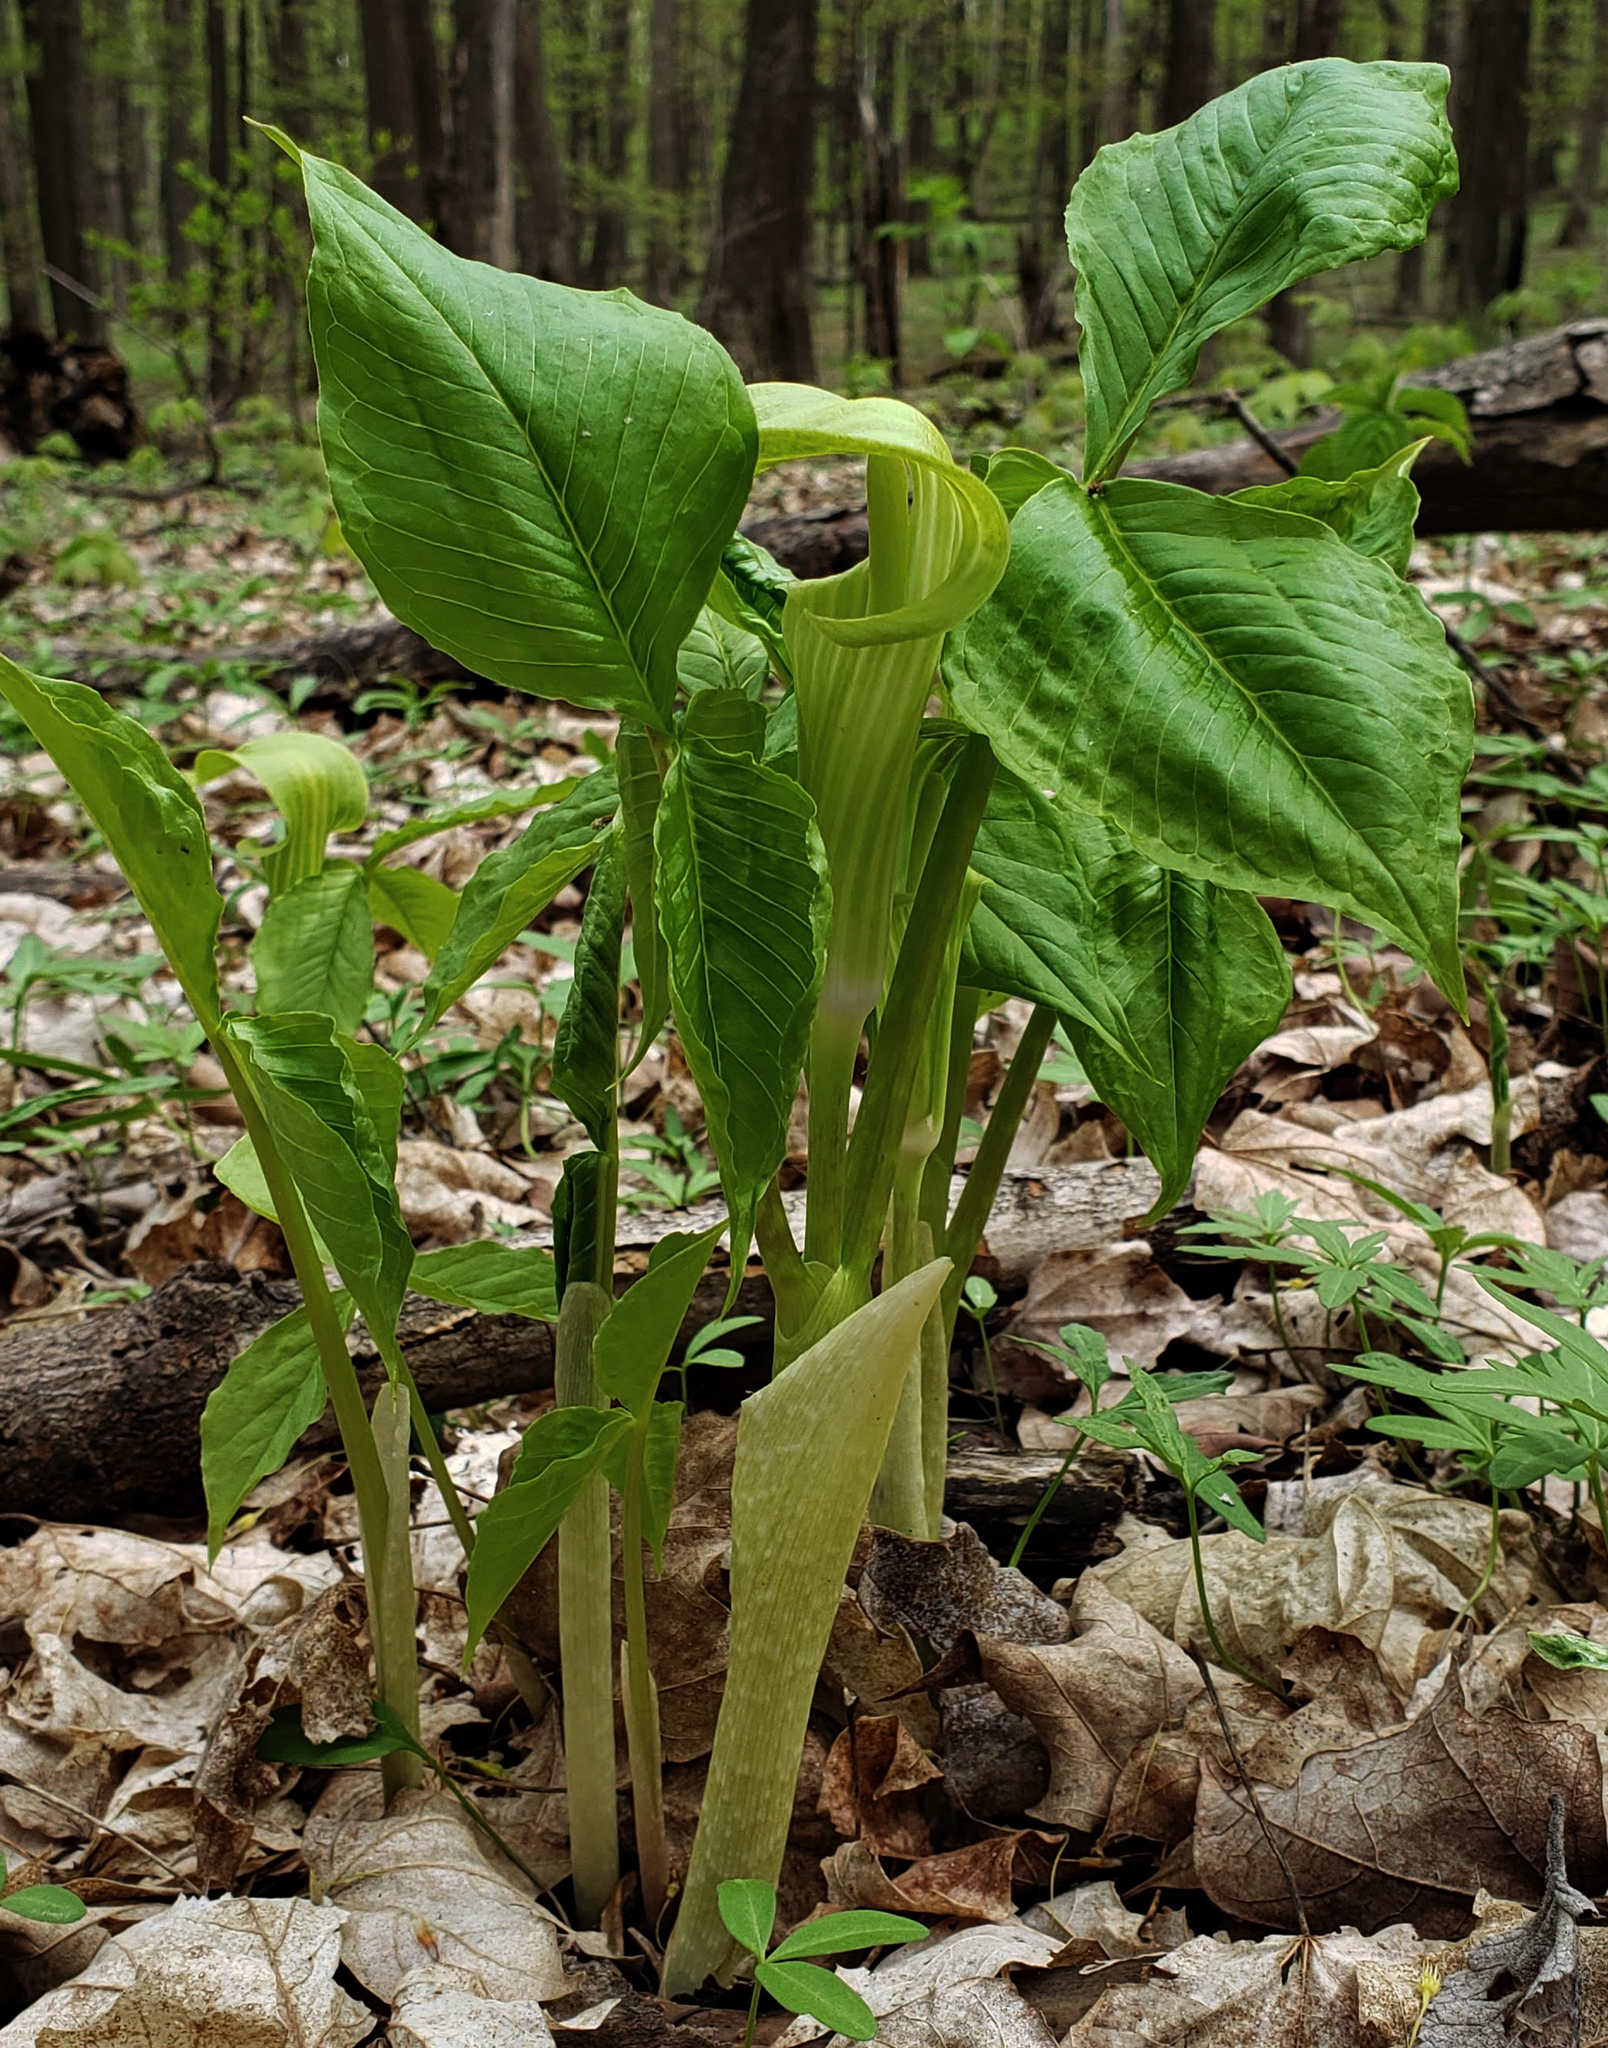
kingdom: Plantae
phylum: Tracheophyta
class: Liliopsida
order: Alismatales
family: Araceae
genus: Arisaema
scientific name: Arisaema triphyllum
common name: Jack-in-the-pulpit
